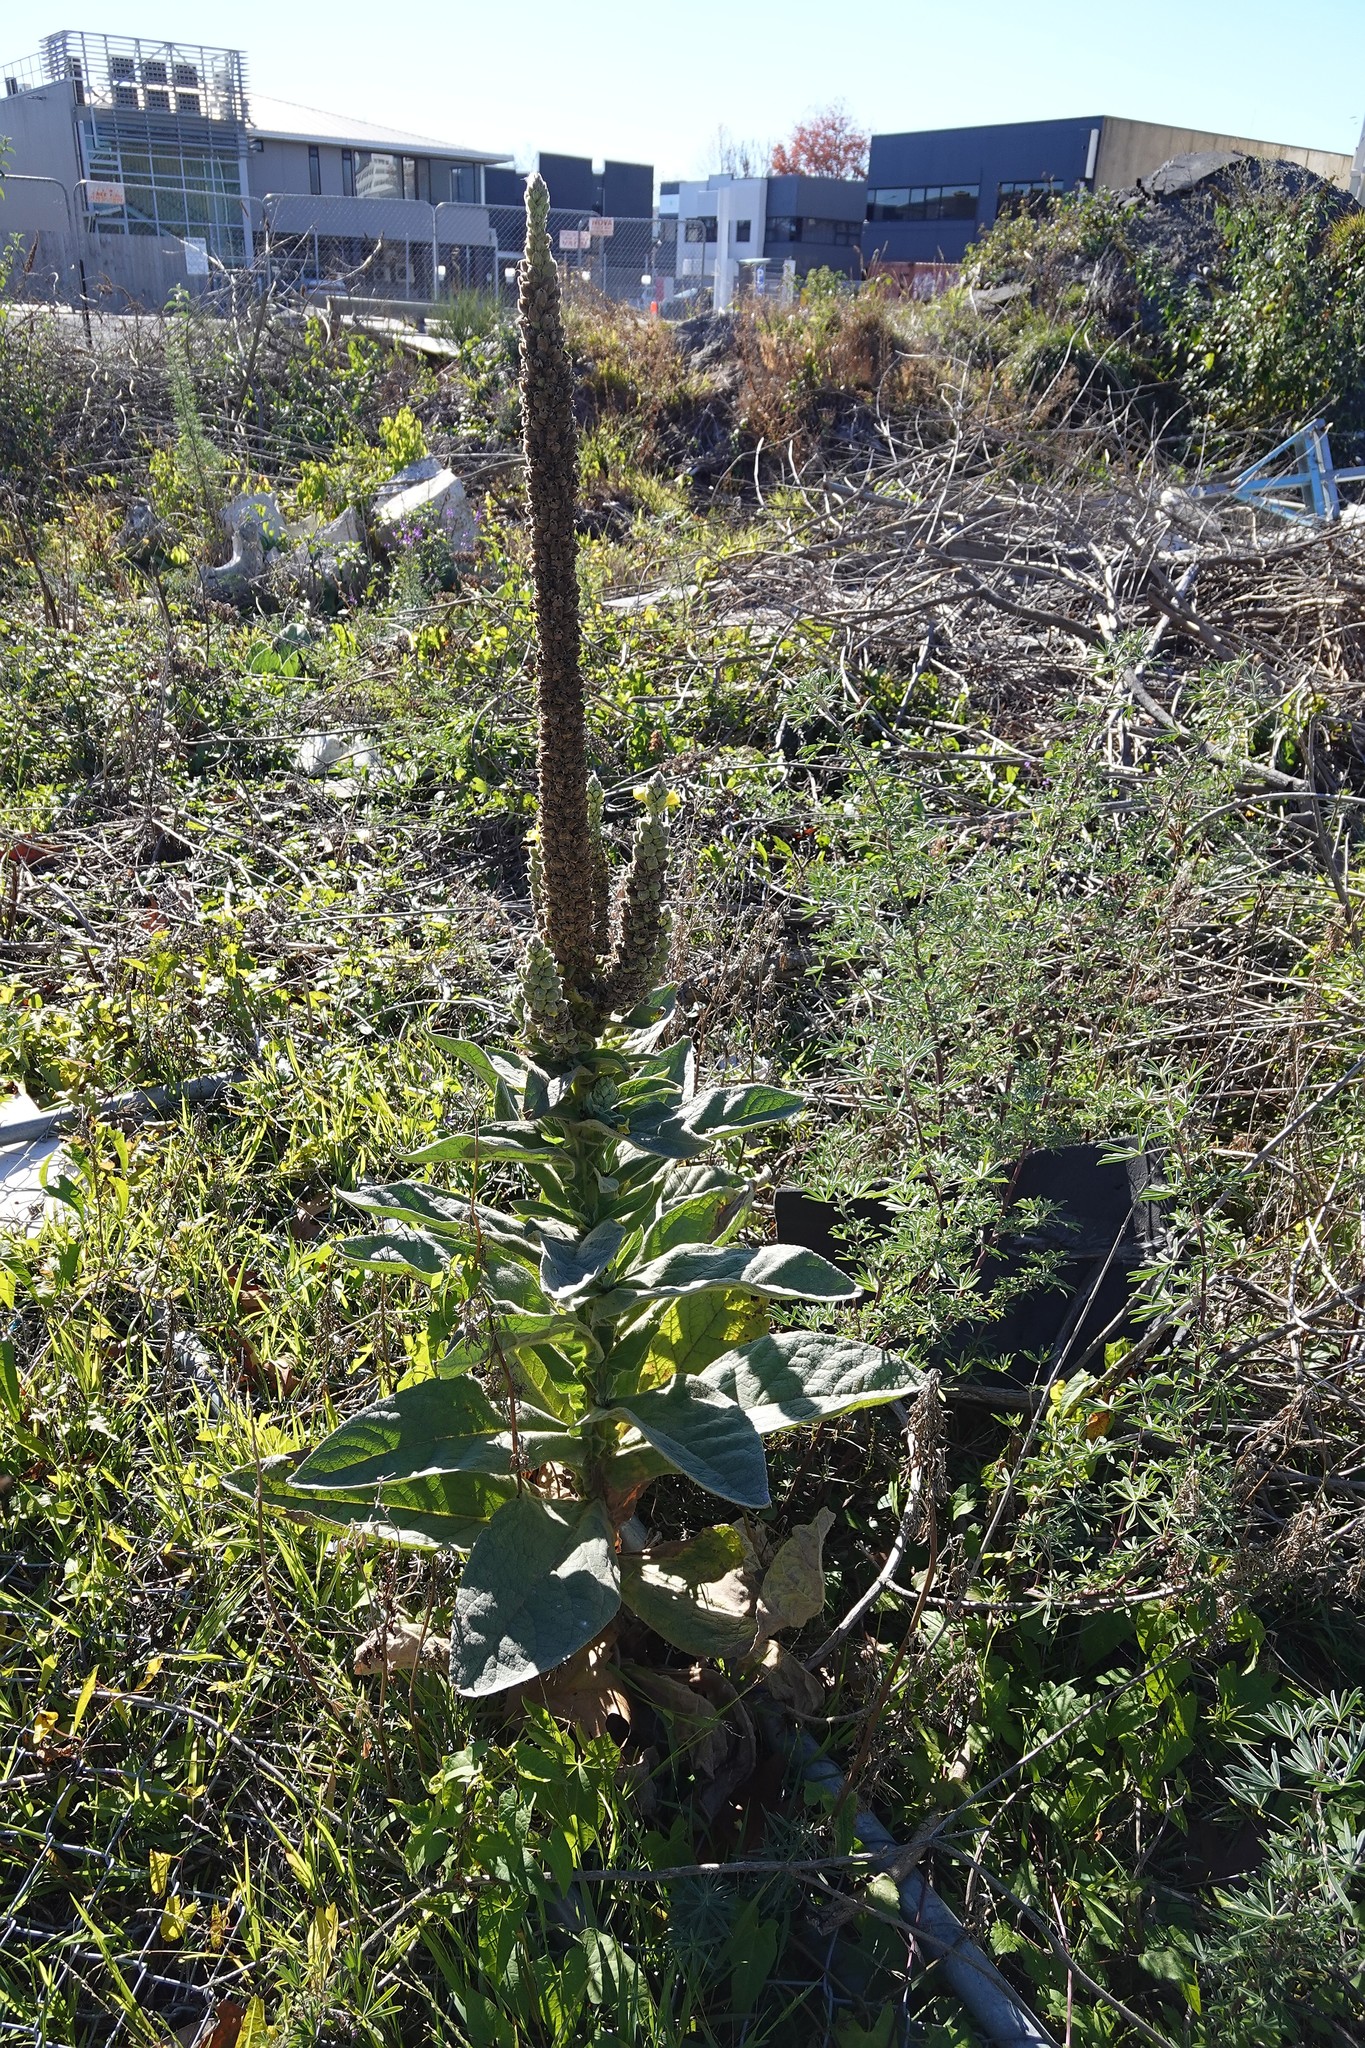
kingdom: Plantae
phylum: Tracheophyta
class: Magnoliopsida
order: Lamiales
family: Scrophulariaceae
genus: Verbascum
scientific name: Verbascum thapsus
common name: Common mullein
